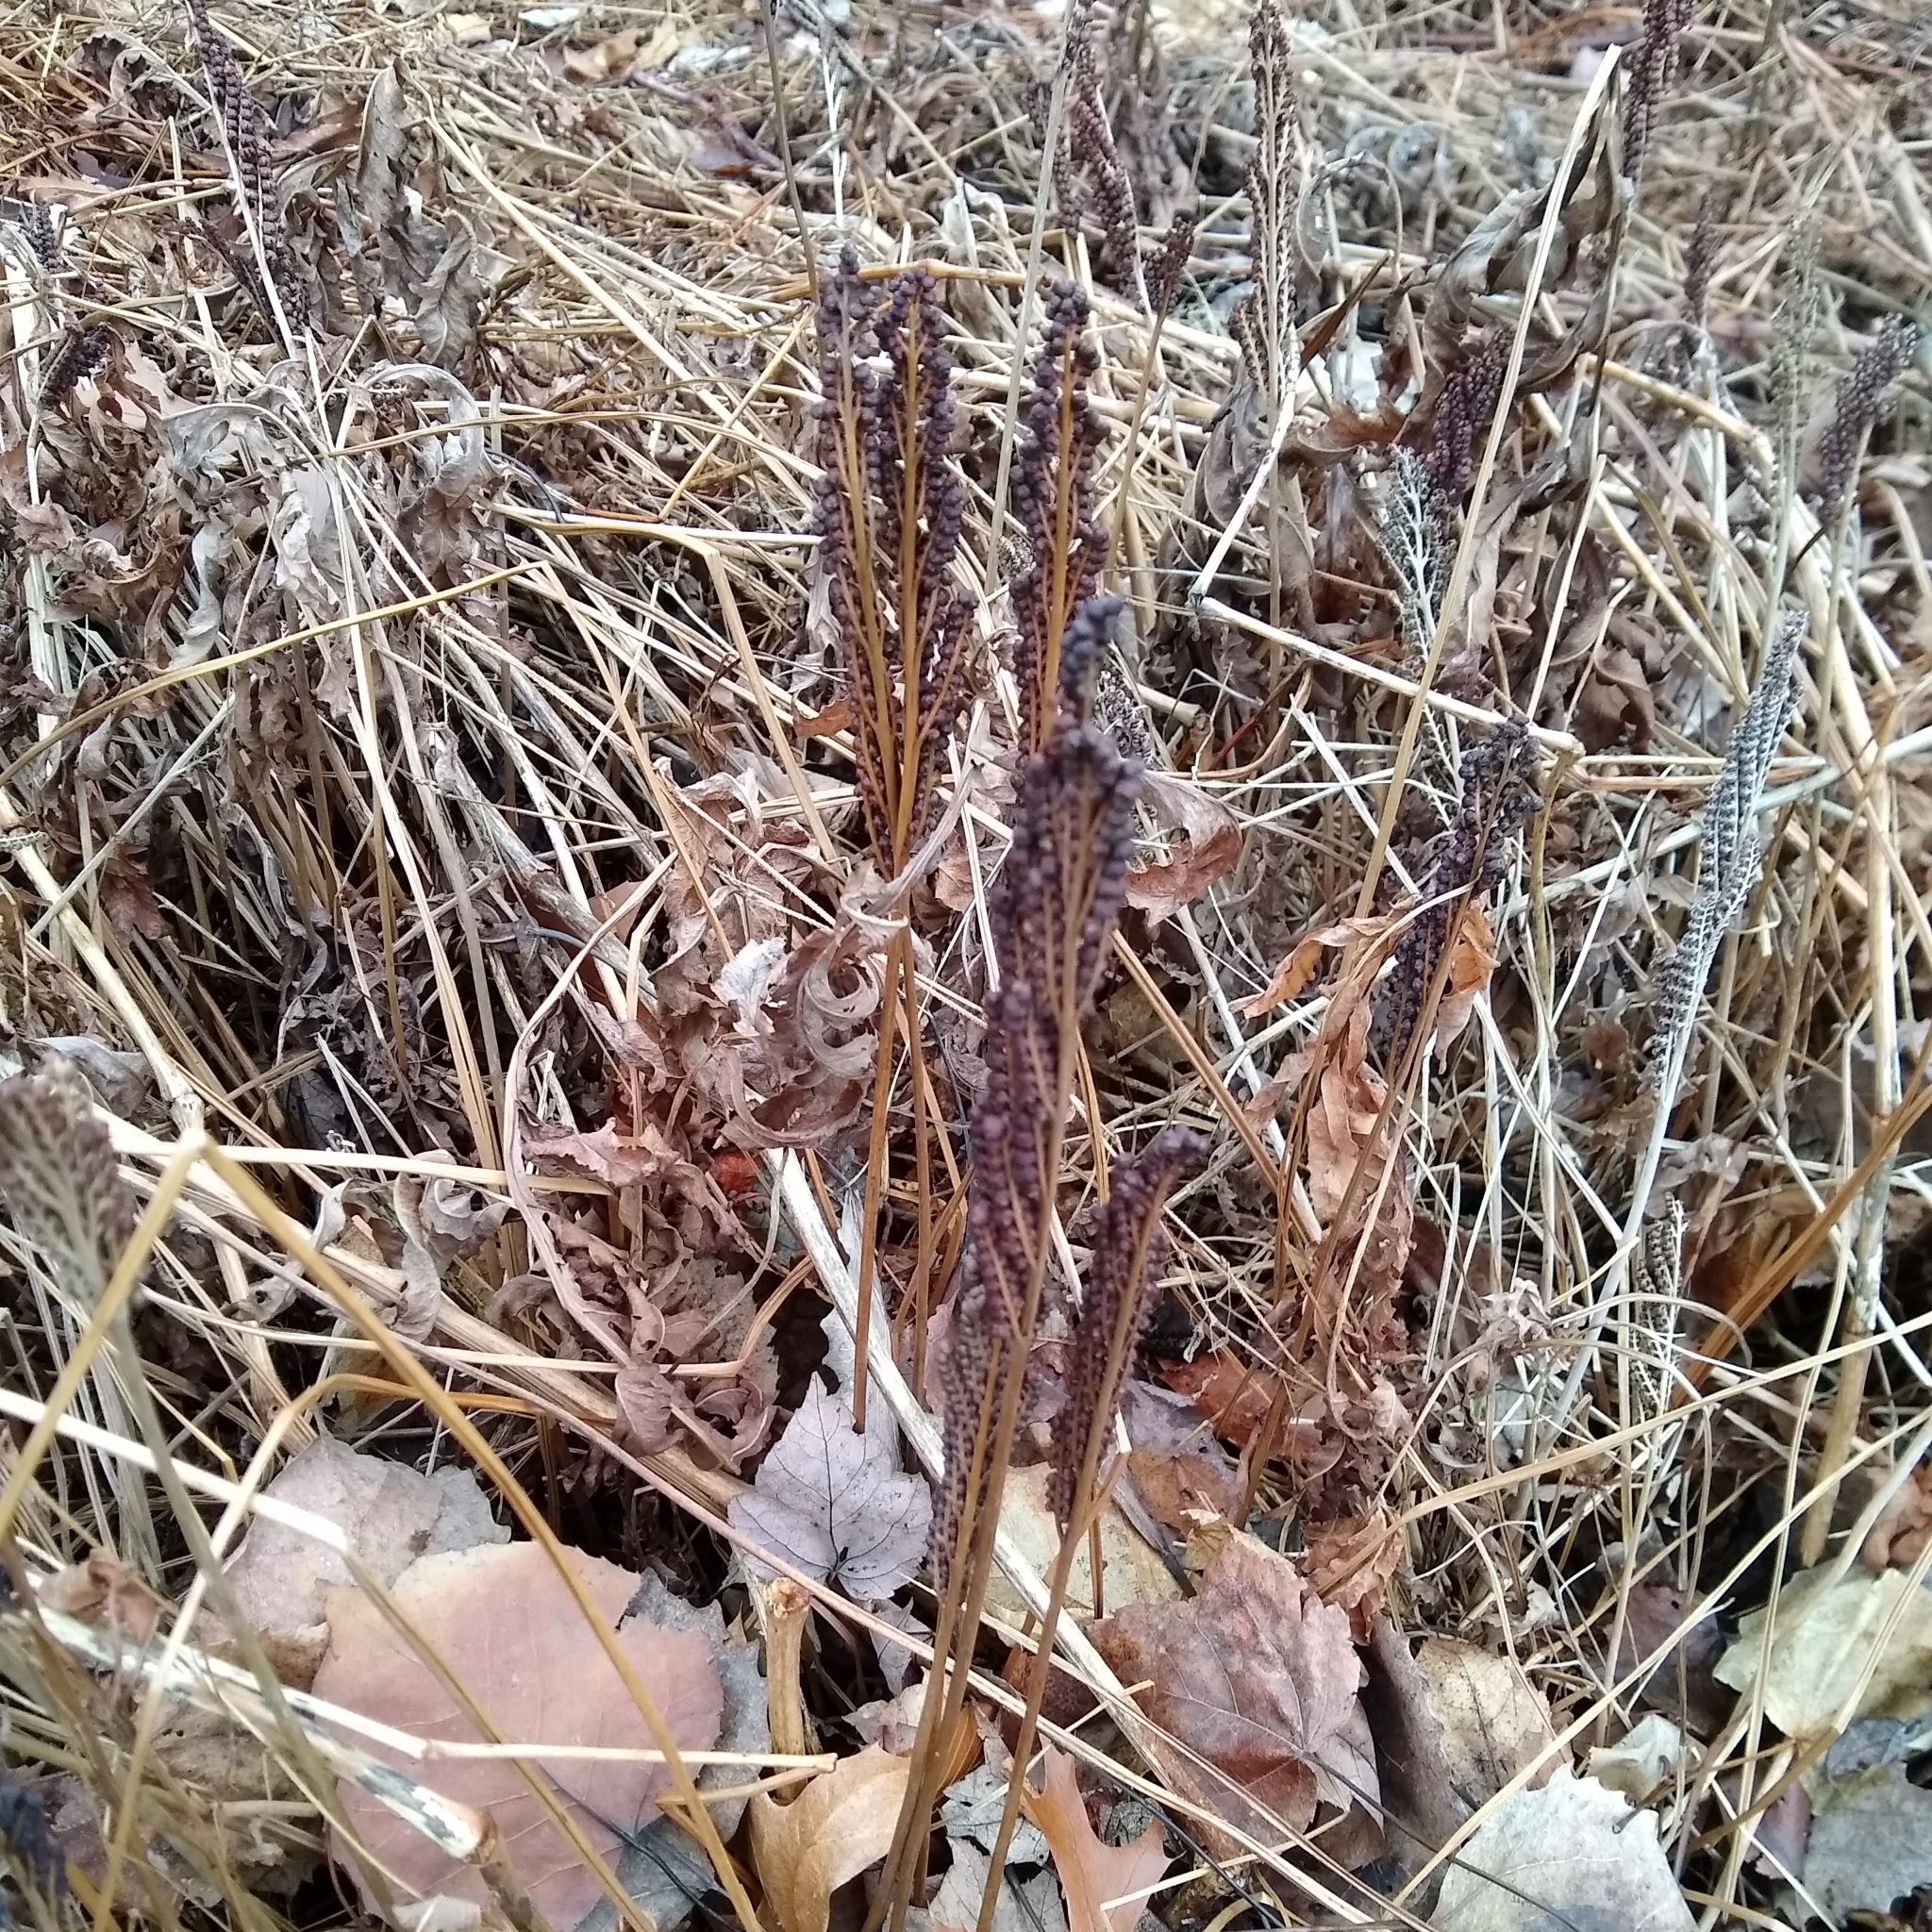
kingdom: Plantae
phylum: Tracheophyta
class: Polypodiopsida
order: Polypodiales
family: Onocleaceae
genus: Onoclea
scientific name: Onoclea sensibilis
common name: Sensitive fern
